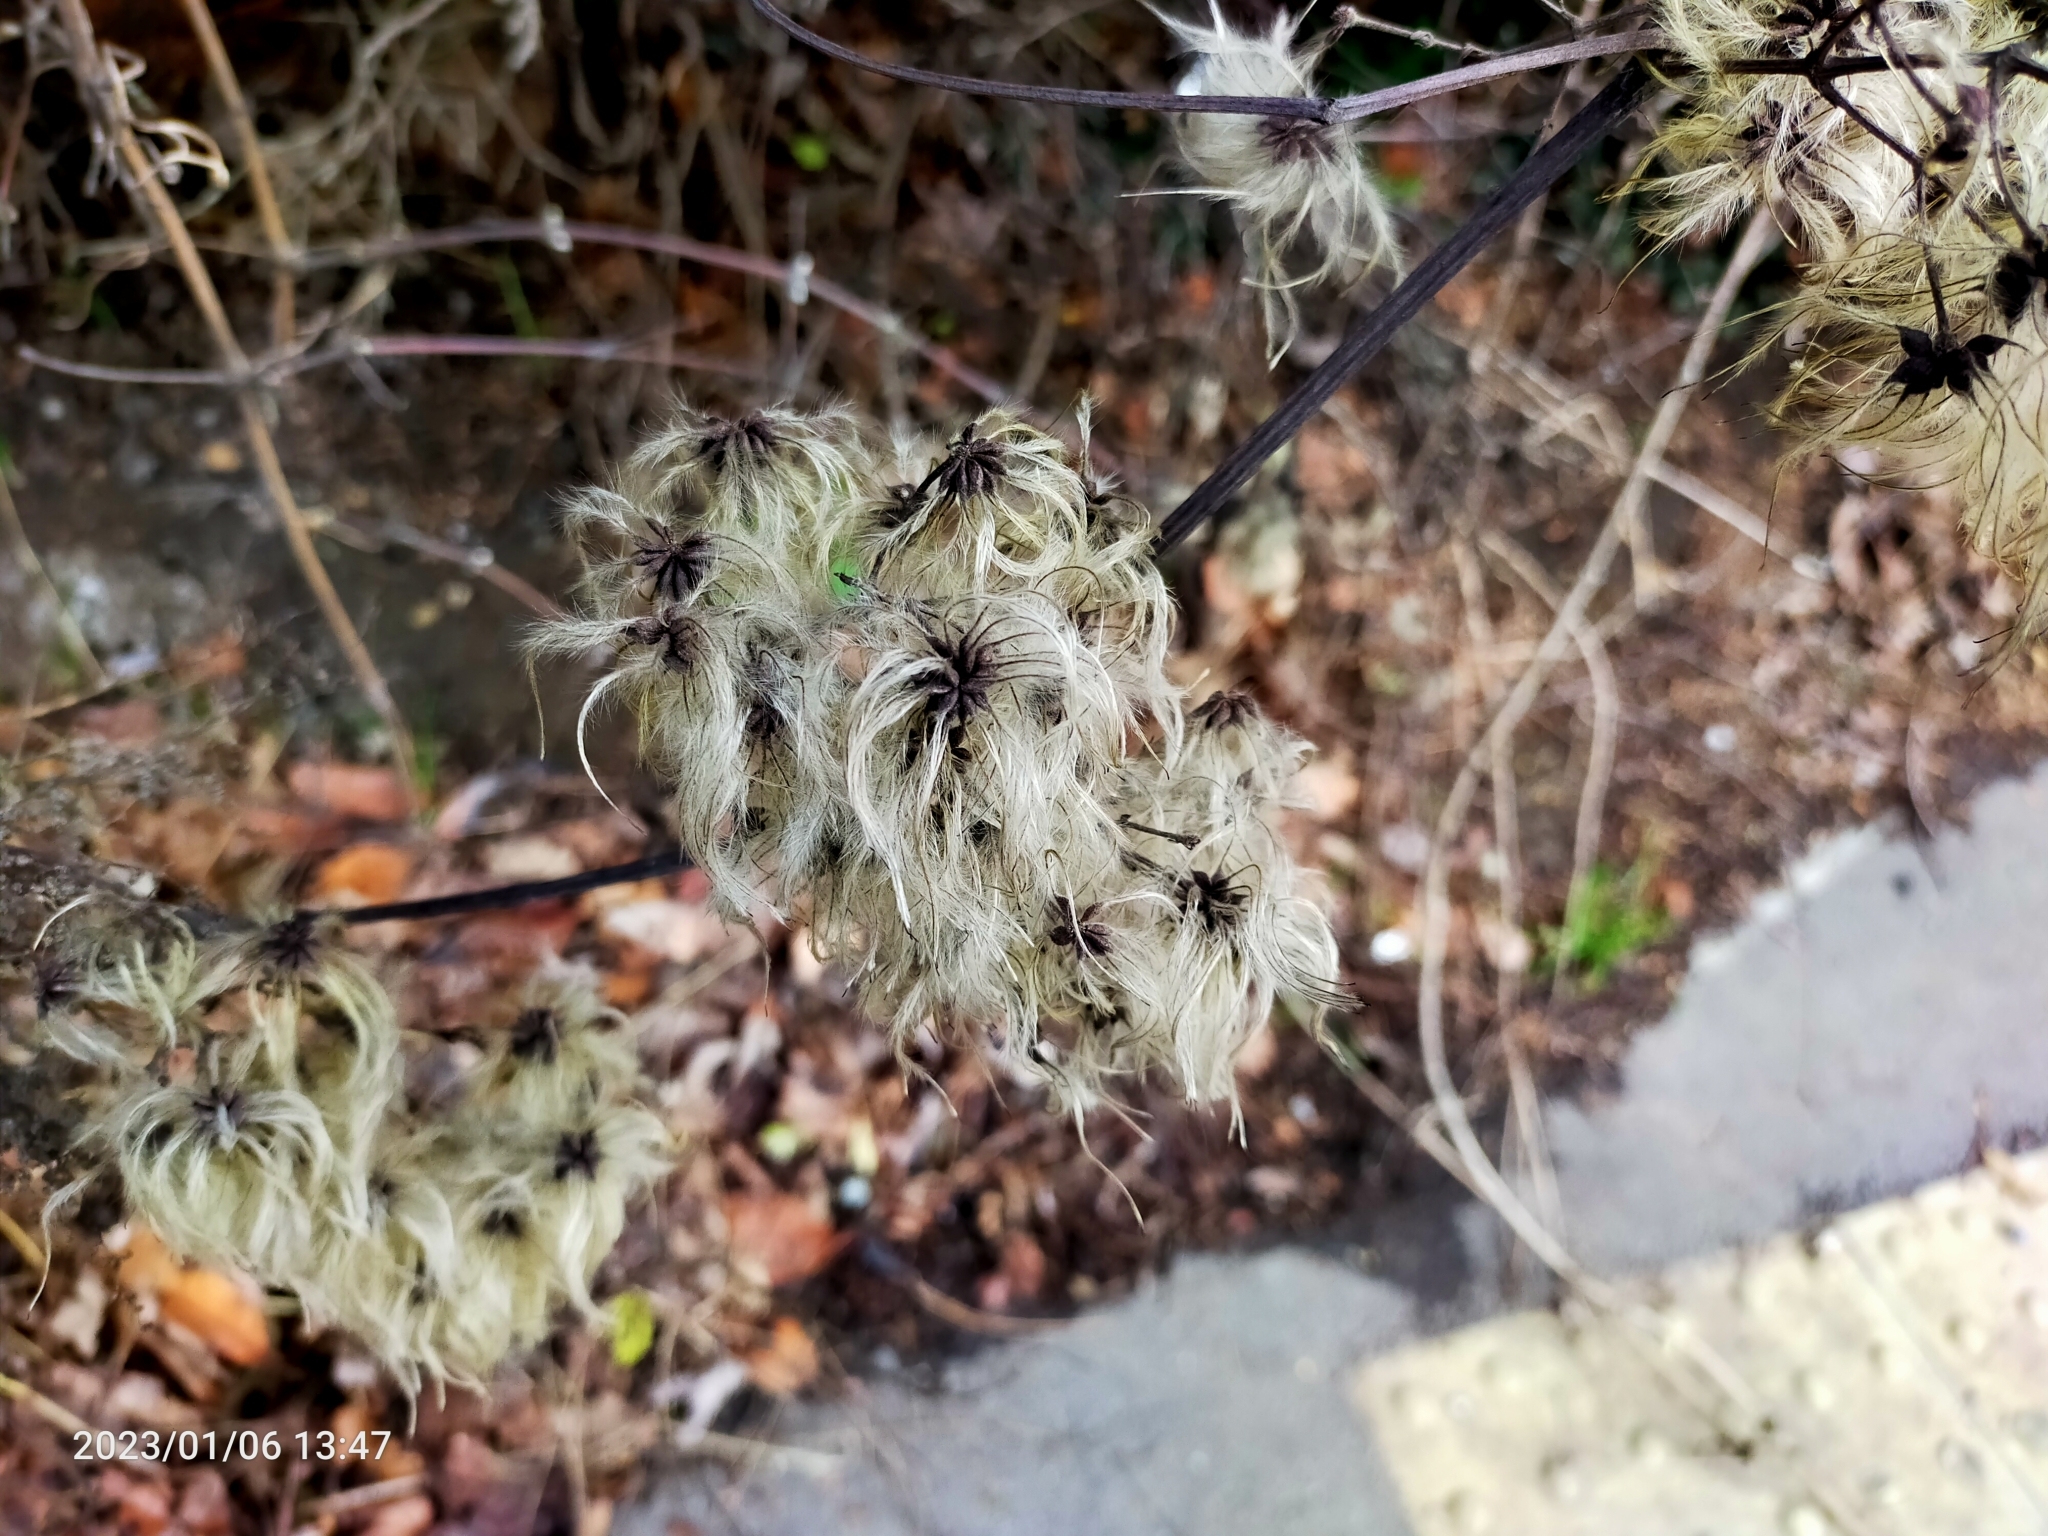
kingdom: Plantae
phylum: Tracheophyta
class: Magnoliopsida
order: Ranunculales
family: Ranunculaceae
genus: Clematis
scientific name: Clematis vitalba
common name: Evergreen clematis
